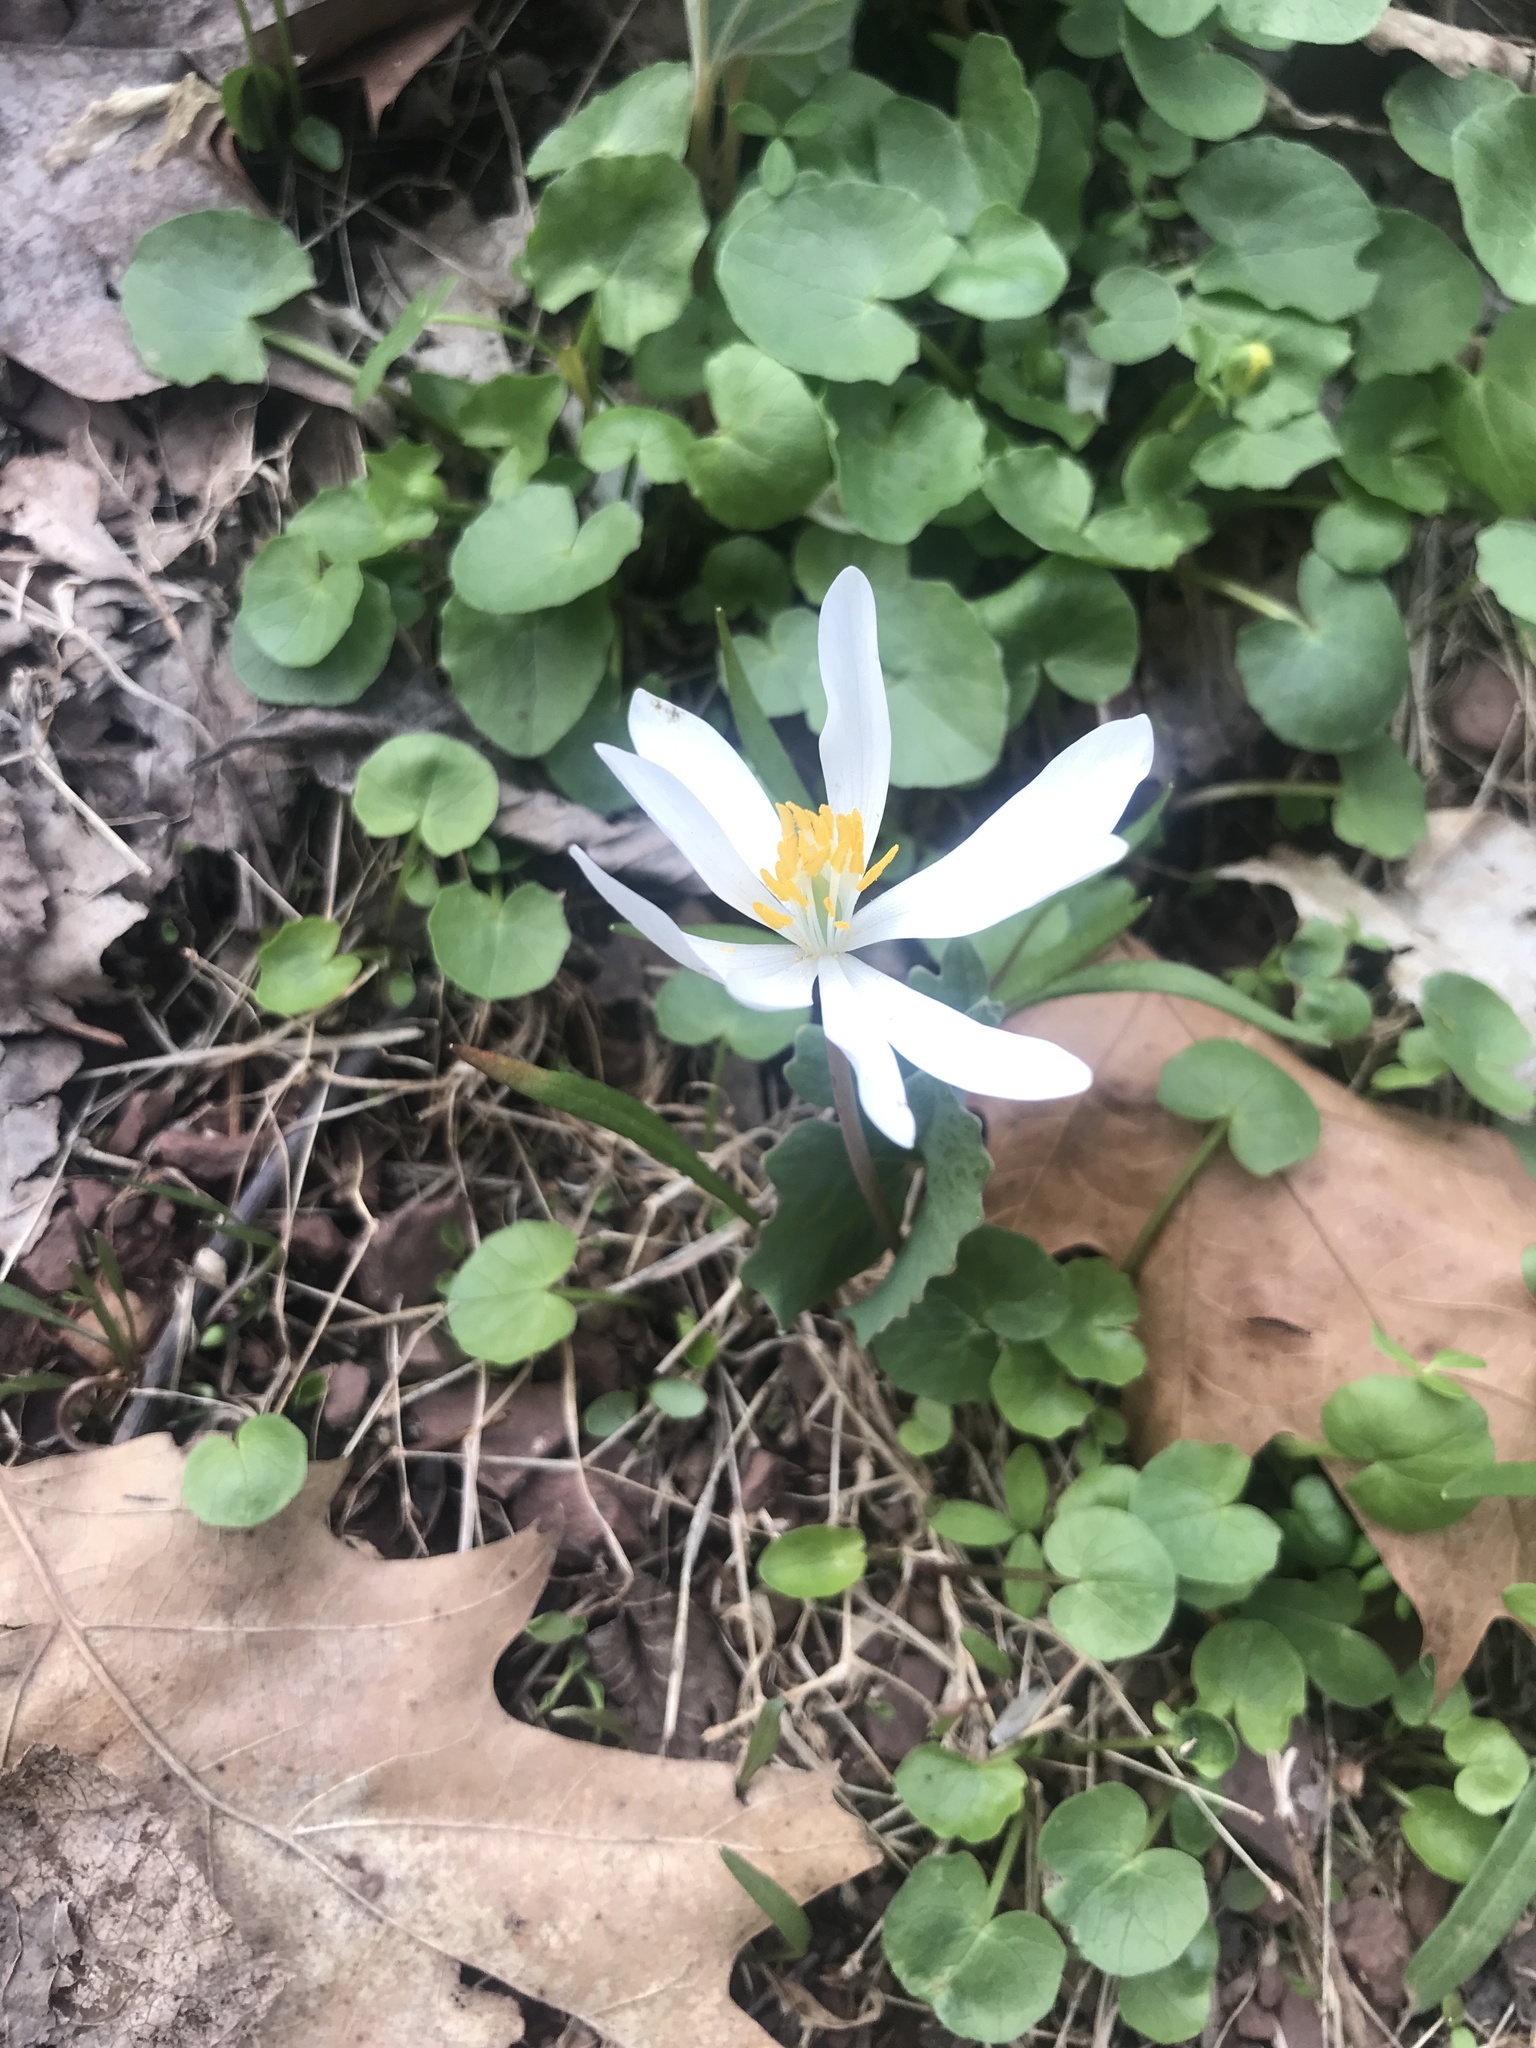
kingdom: Plantae
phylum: Tracheophyta
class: Magnoliopsida
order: Ranunculales
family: Papaveraceae
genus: Sanguinaria
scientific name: Sanguinaria canadensis
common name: Bloodroot
